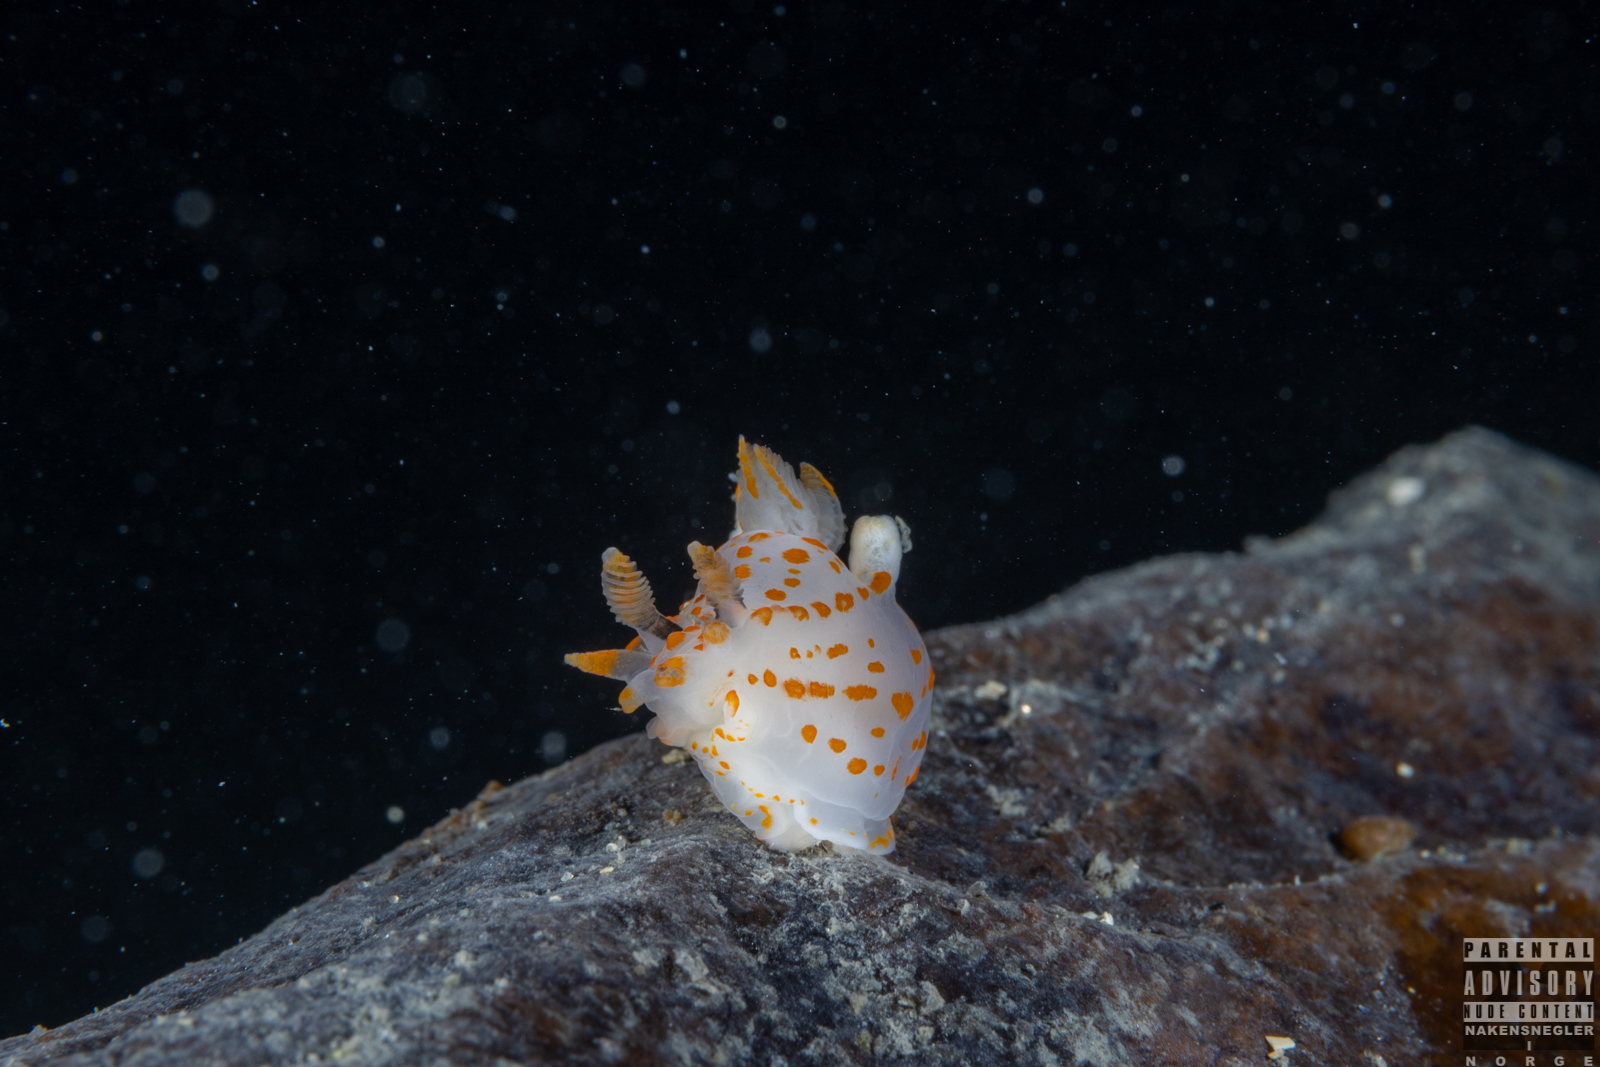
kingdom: Animalia
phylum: Mollusca
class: Gastropoda
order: Nudibranchia
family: Polyceridae
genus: Polycera
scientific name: Polycera quadrilineata
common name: Four-striped polycera
